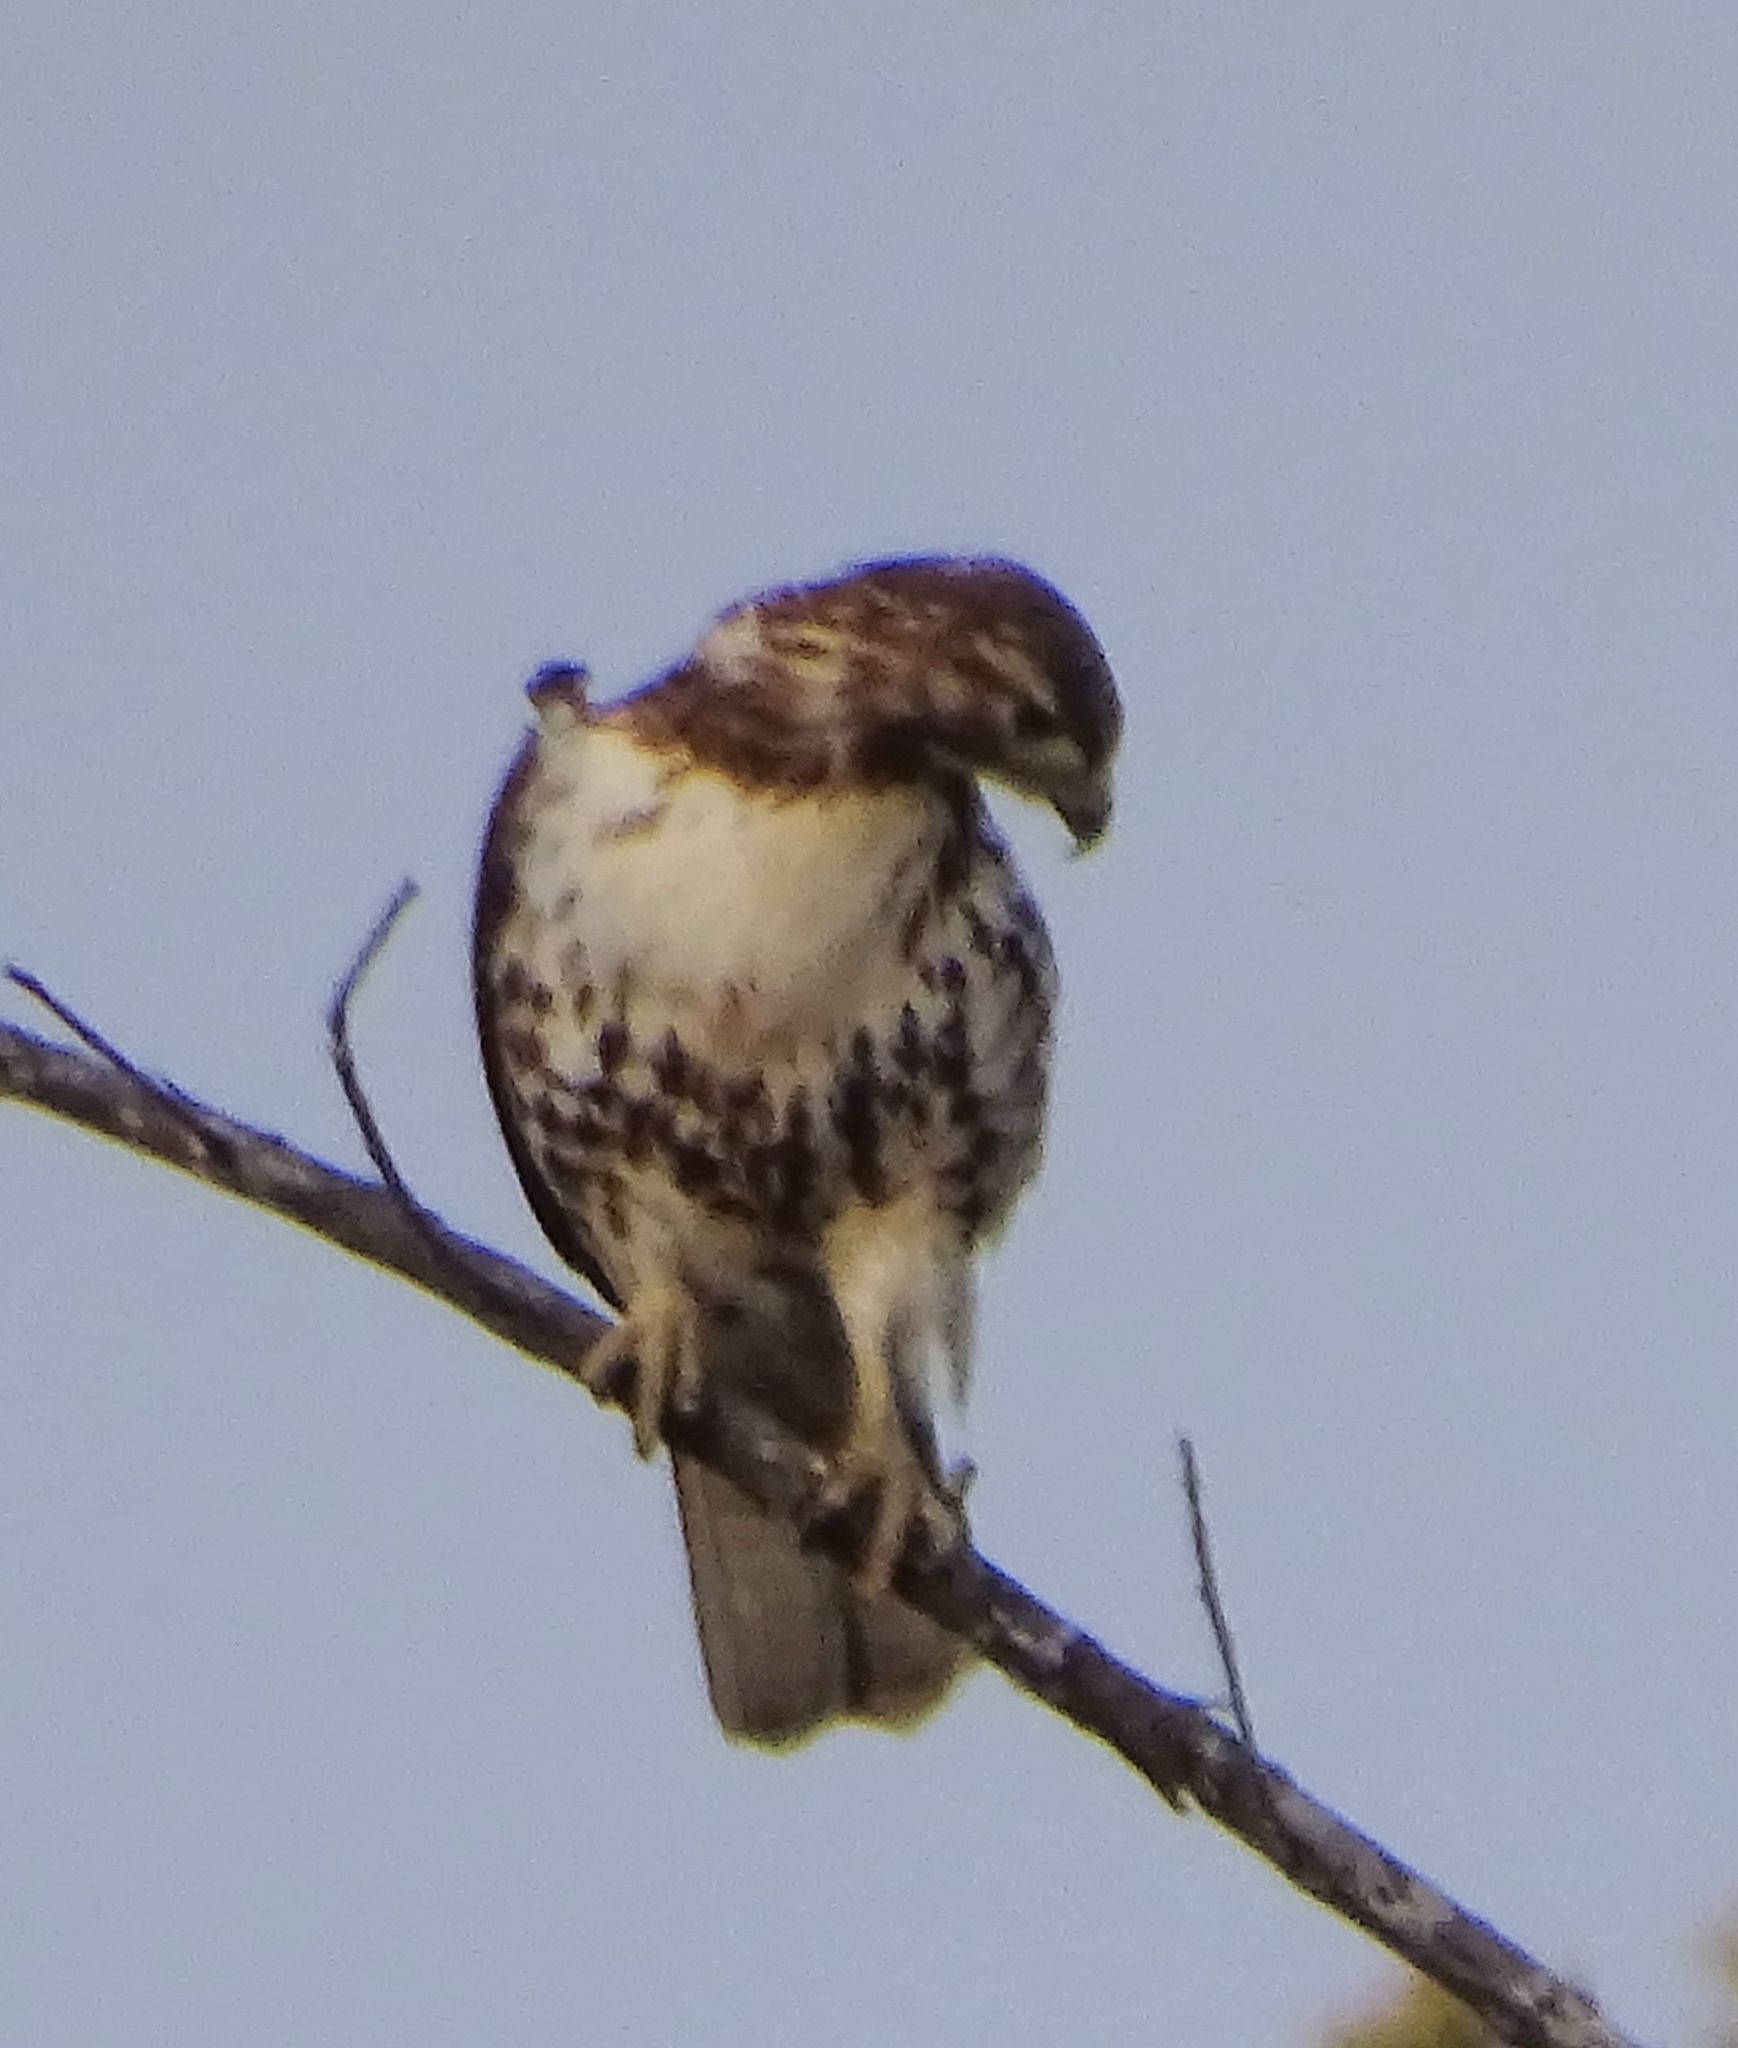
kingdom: Animalia
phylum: Chordata
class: Aves
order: Accipitriformes
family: Accipitridae
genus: Buteo
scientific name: Buteo jamaicensis
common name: Red-tailed hawk
